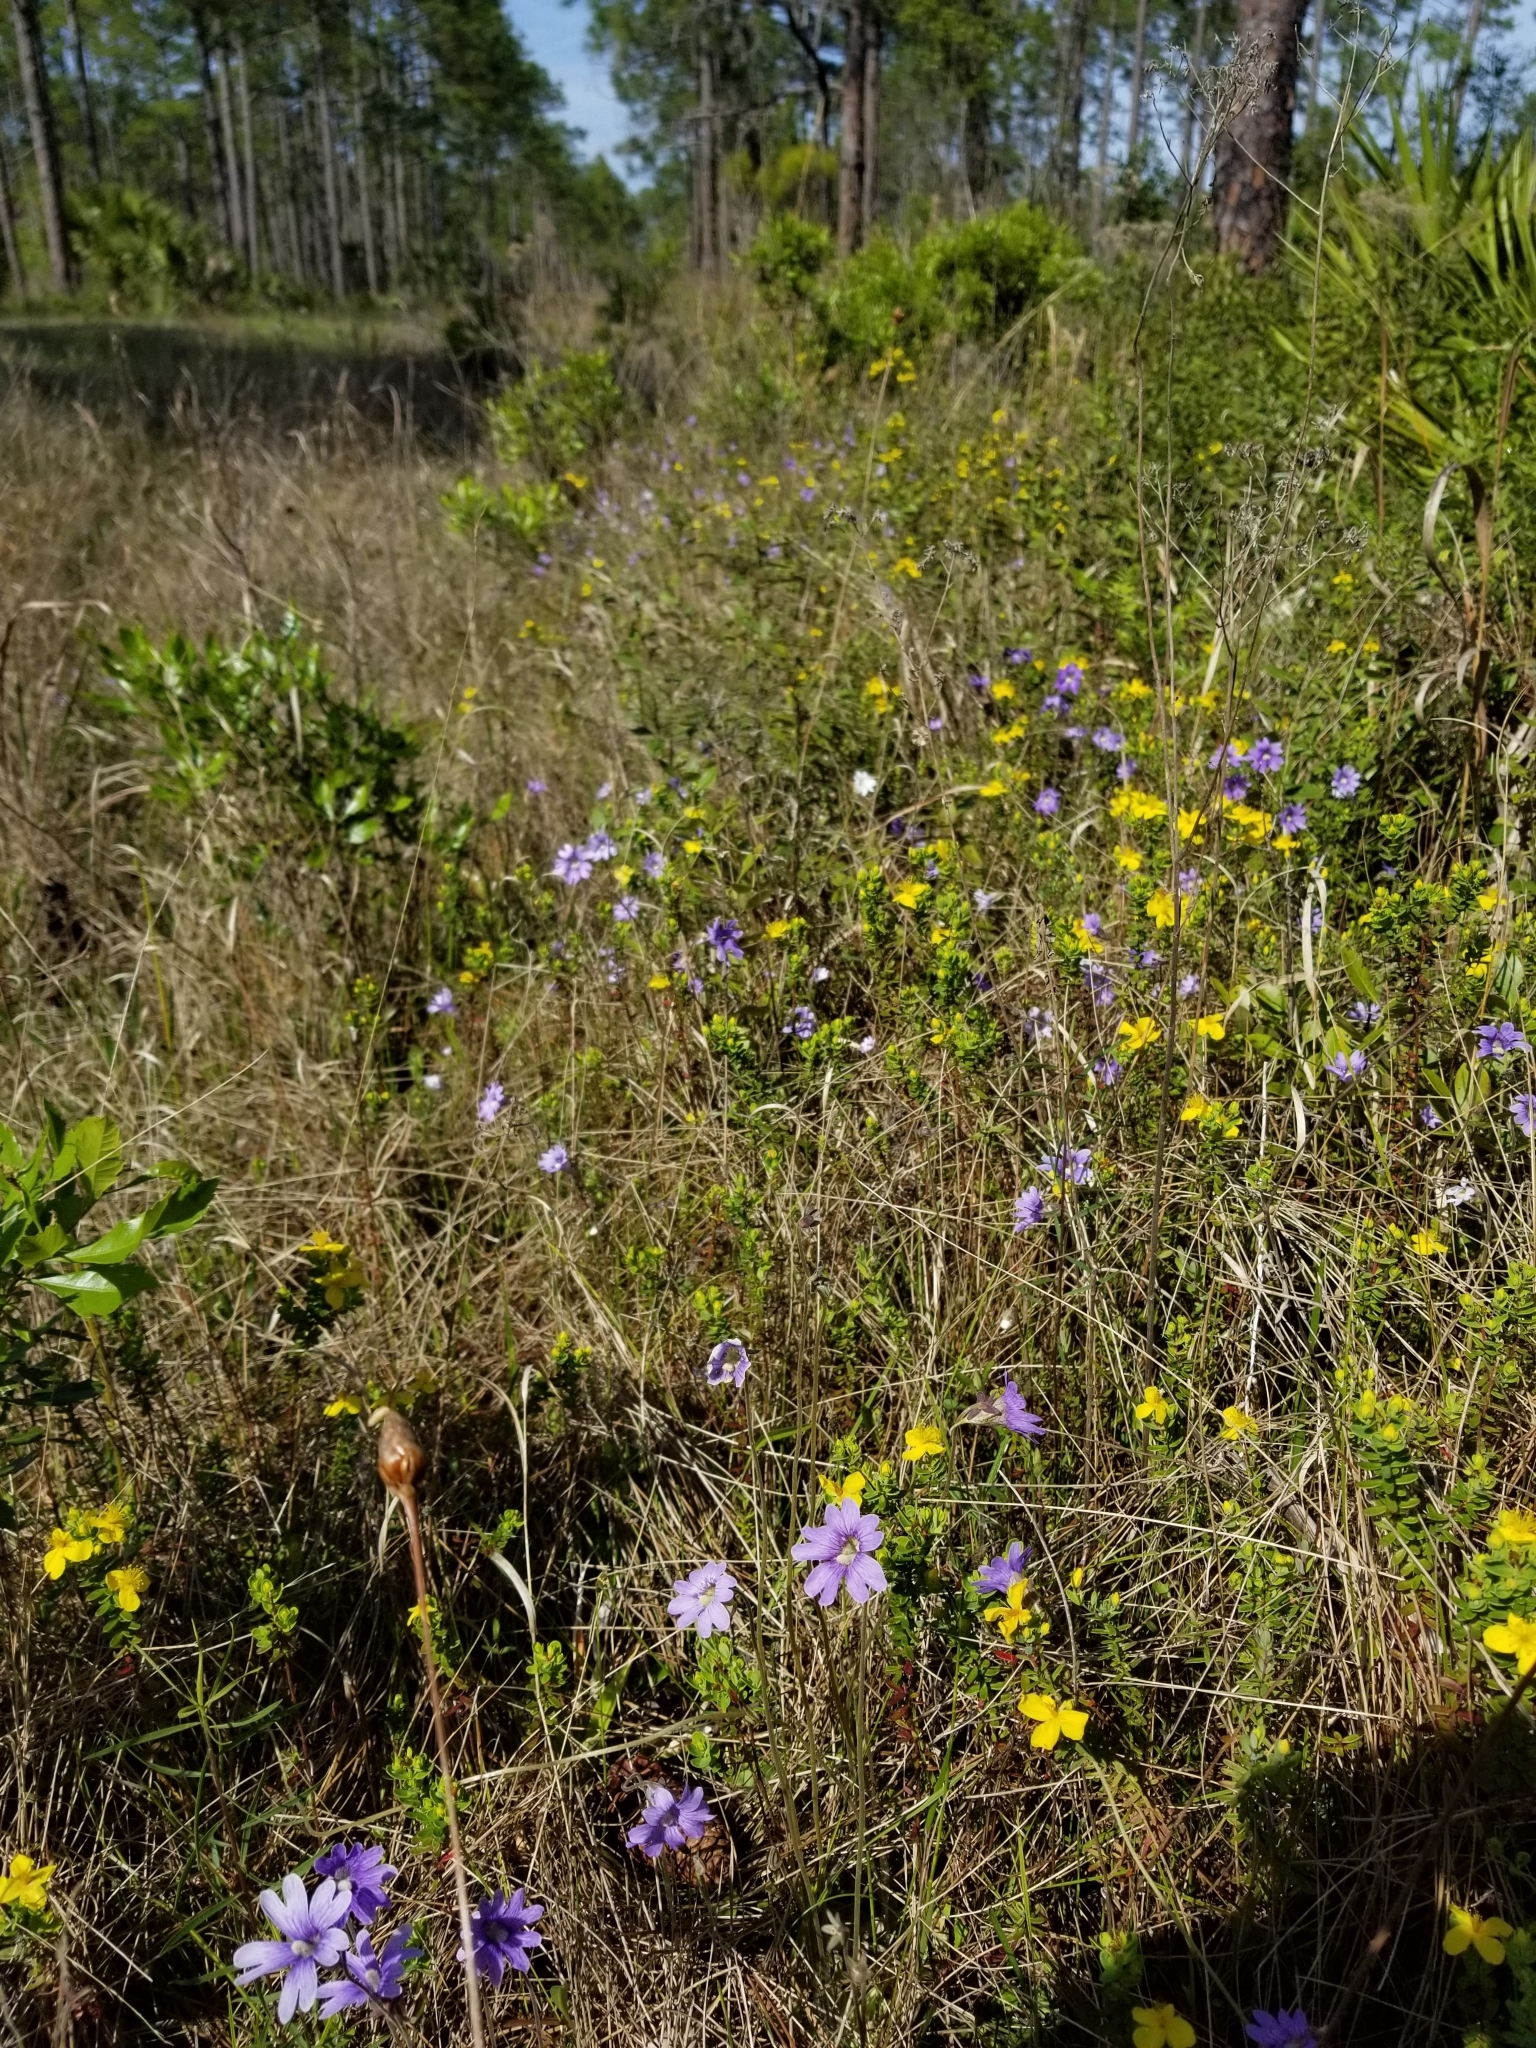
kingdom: Plantae
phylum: Tracheophyta
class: Magnoliopsida
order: Lamiales
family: Lentibulariaceae
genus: Pinguicula
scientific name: Pinguicula caerulea
